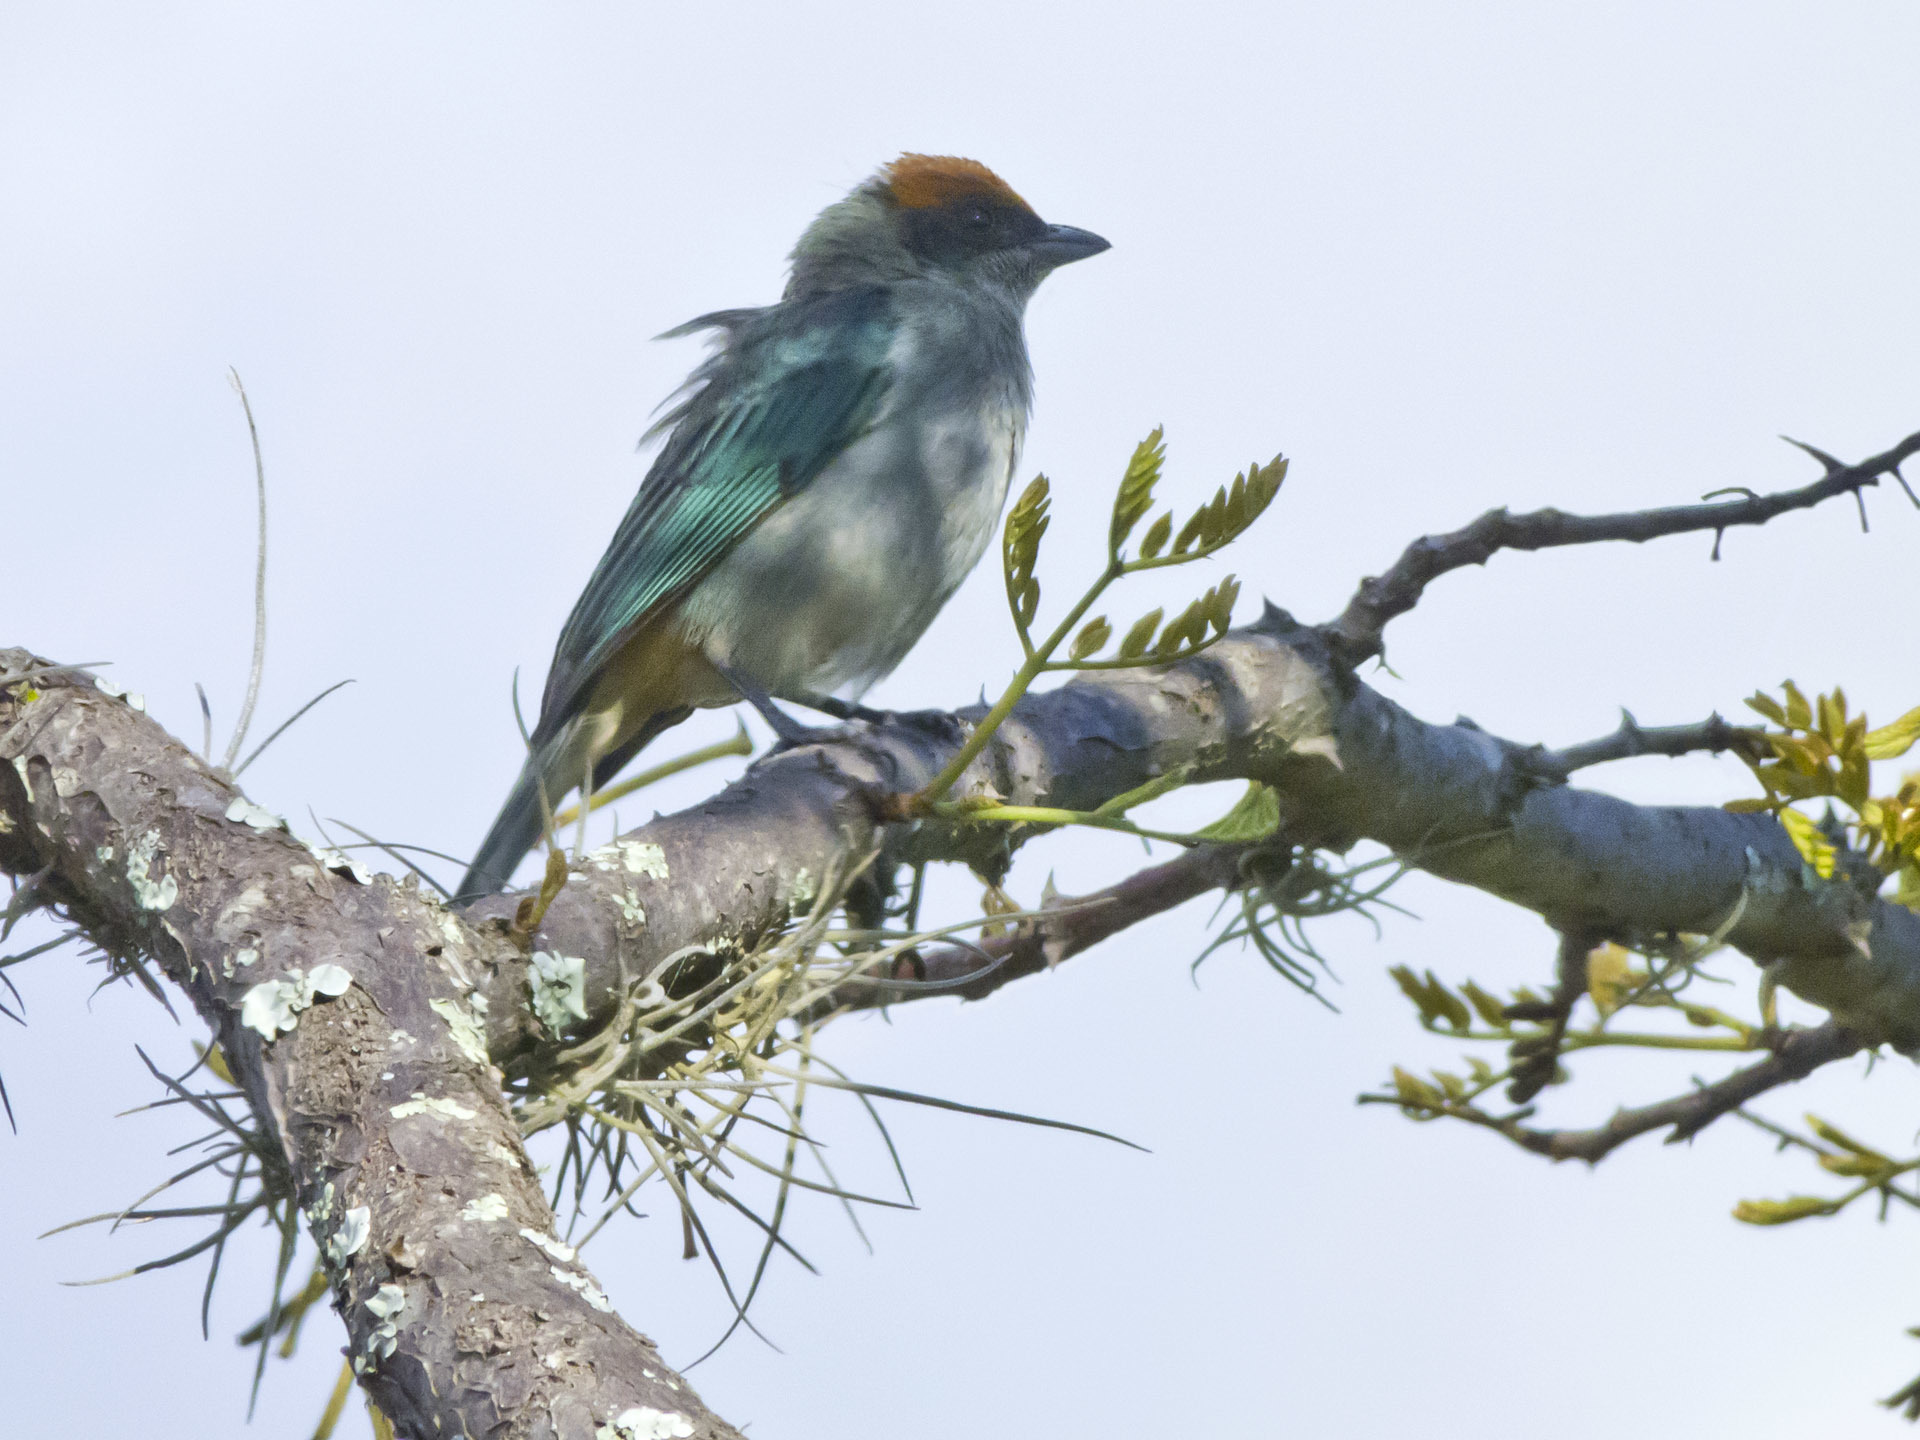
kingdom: Animalia
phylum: Chordata
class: Aves
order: Passeriformes
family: Thraupidae
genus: Stilpnia
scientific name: Stilpnia vitriolina
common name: Scrub tanager
